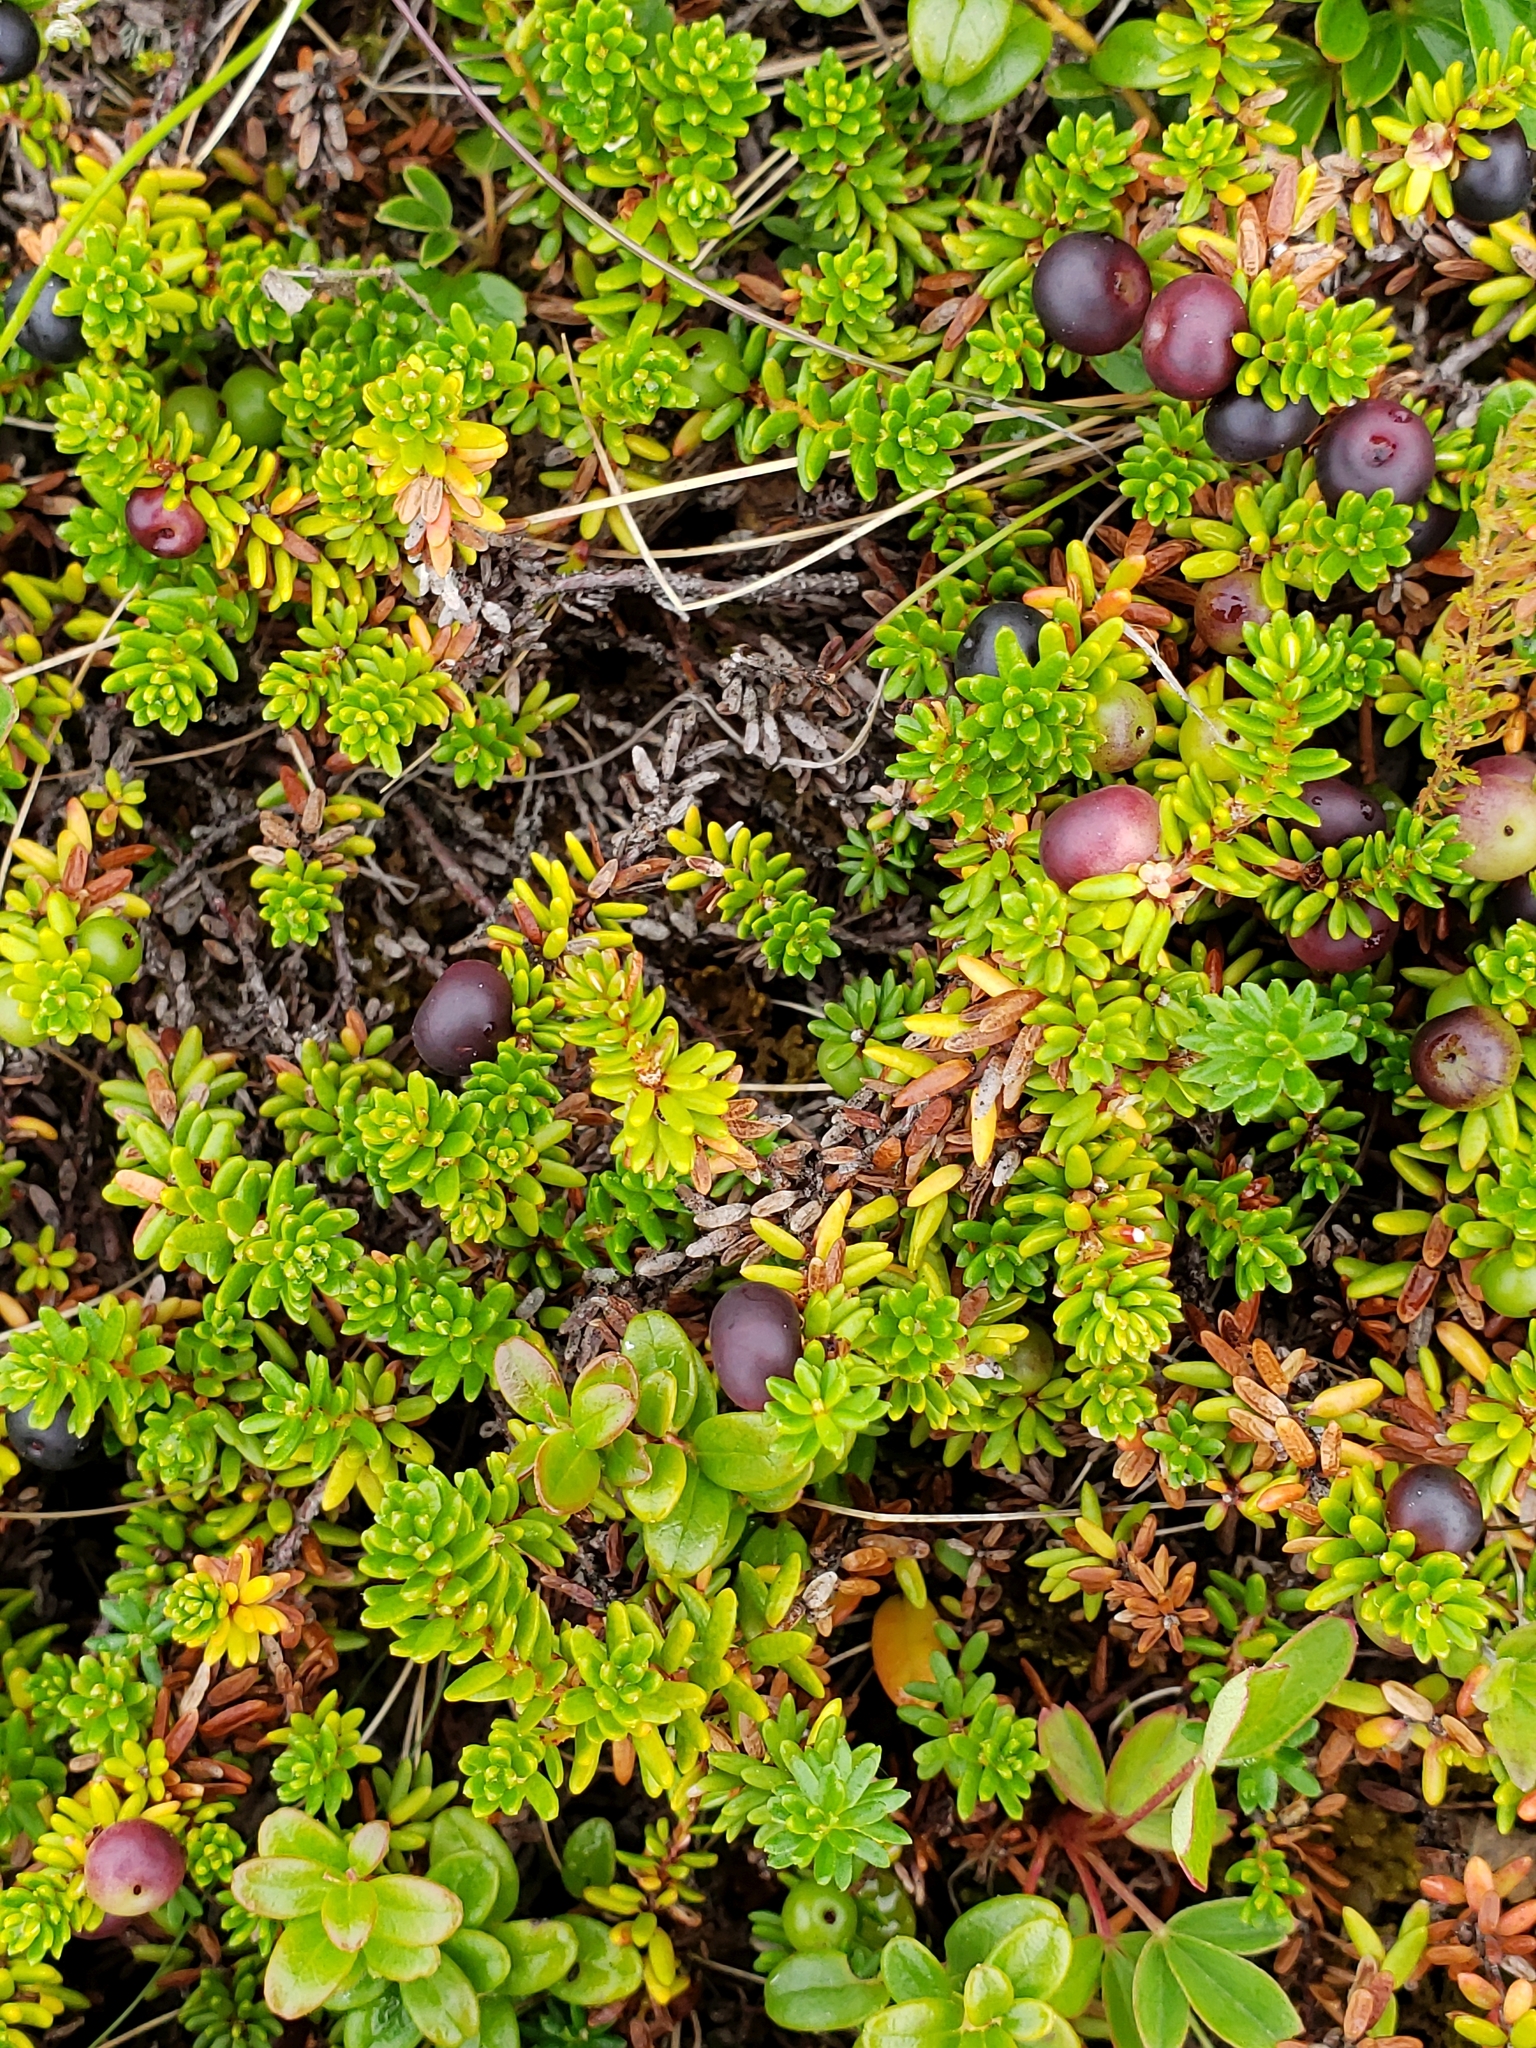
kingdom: Plantae
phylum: Tracheophyta
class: Magnoliopsida
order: Ericales
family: Ericaceae
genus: Empetrum
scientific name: Empetrum nigrum
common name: Black crowberry
